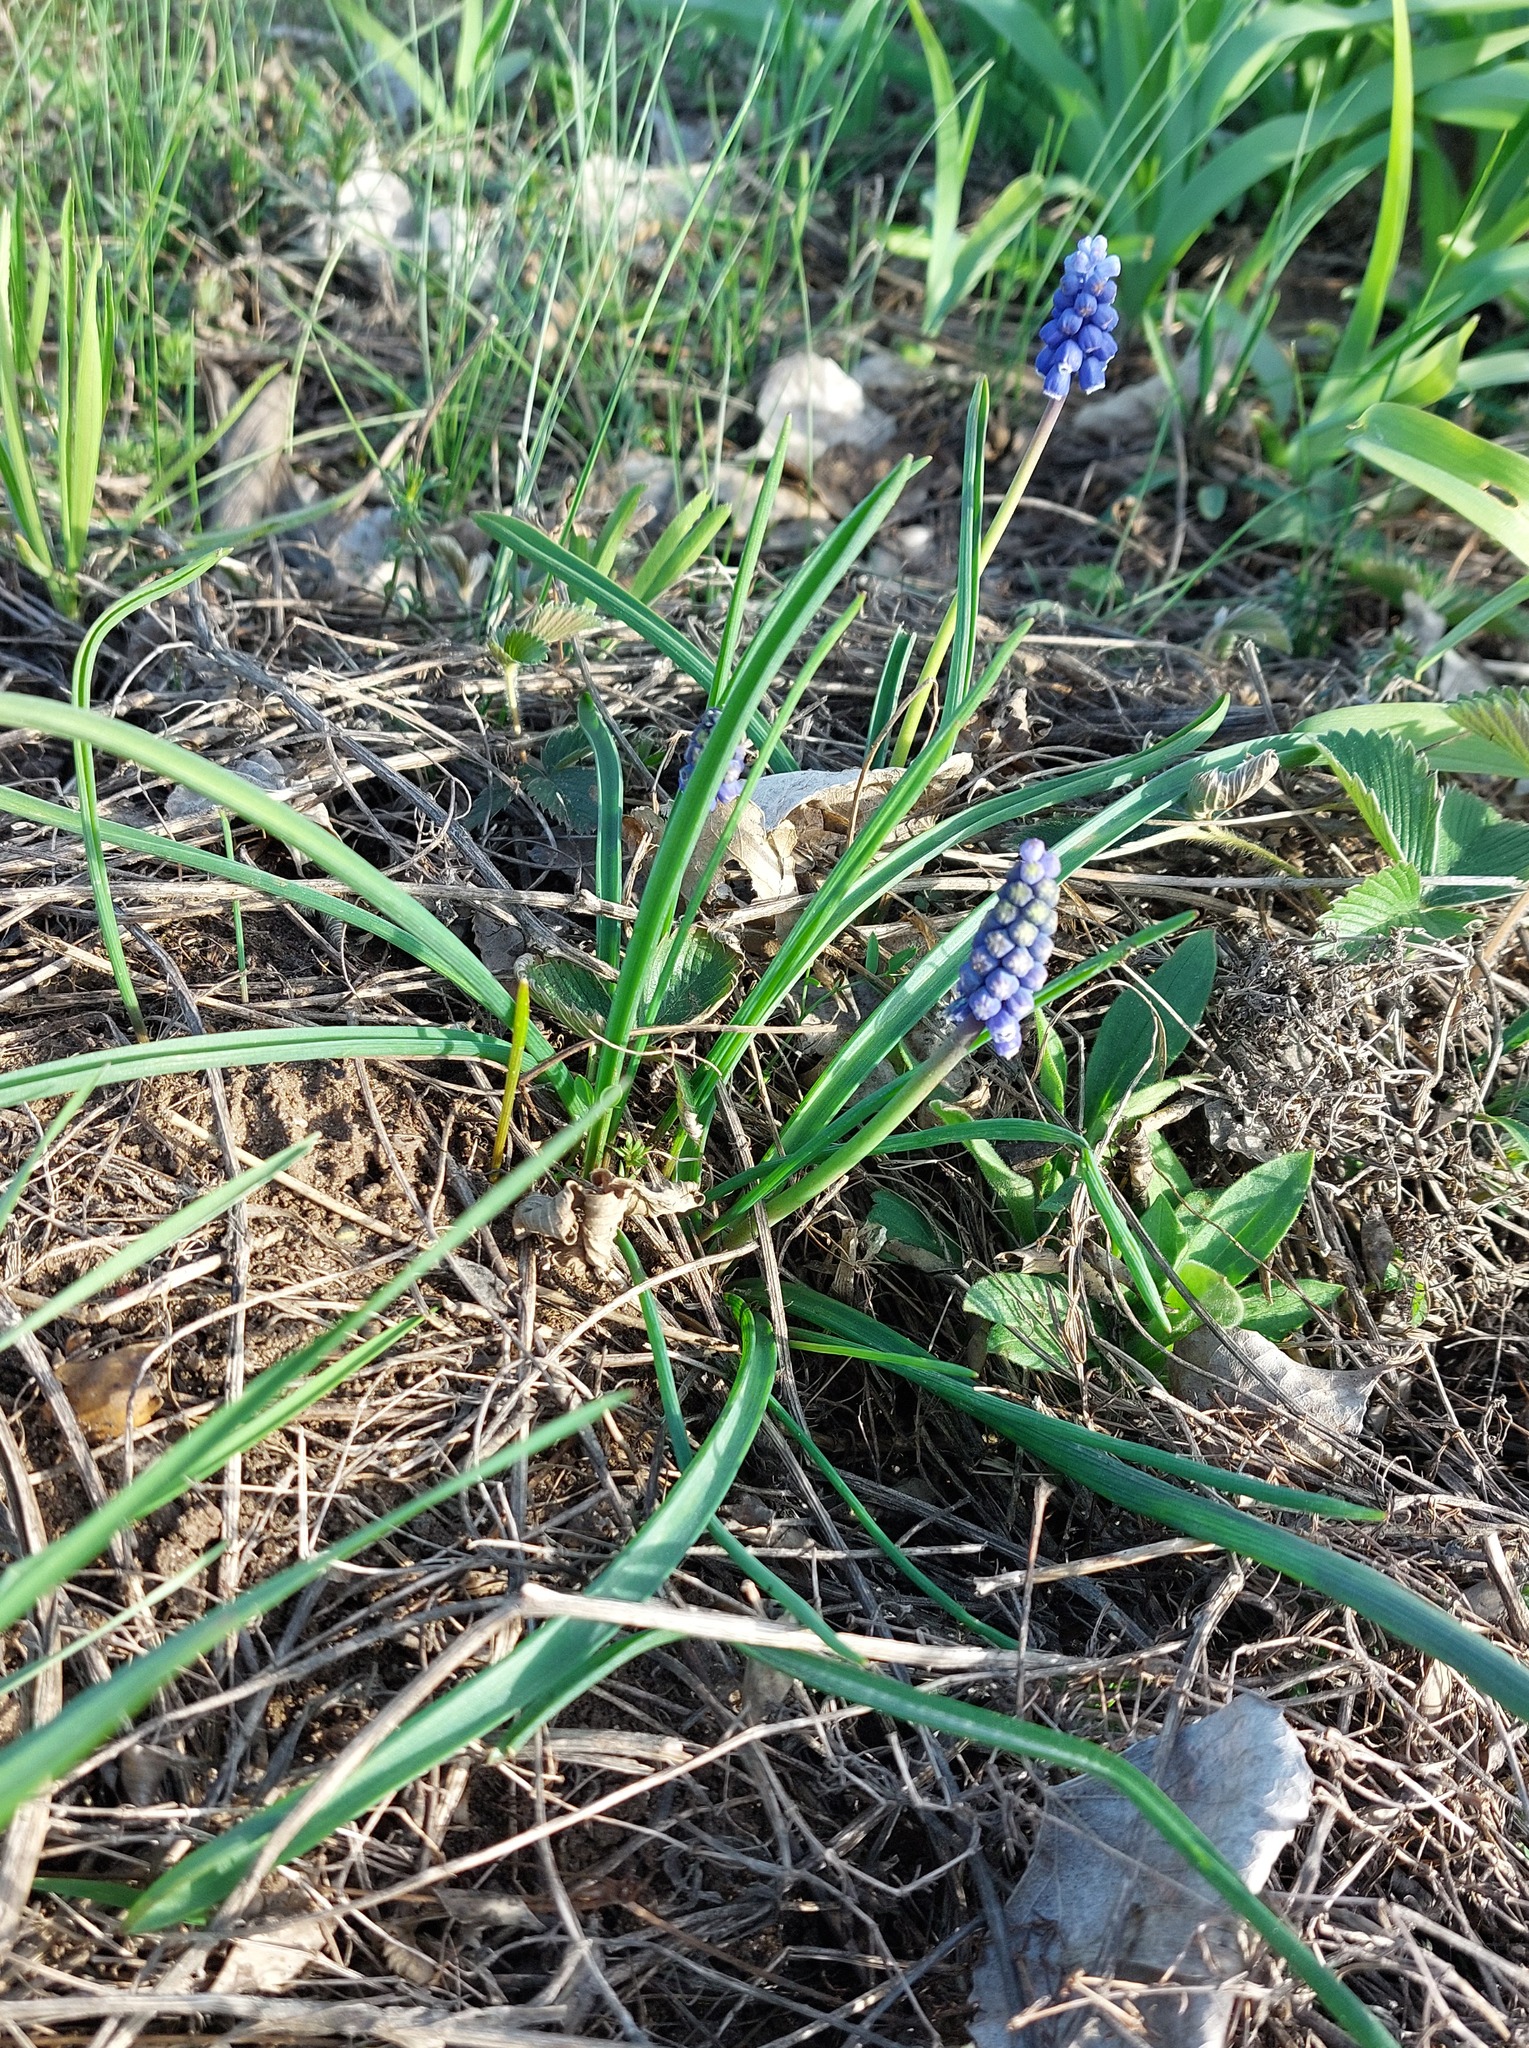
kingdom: Plantae
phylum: Tracheophyta
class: Liliopsida
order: Asparagales
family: Asparagaceae
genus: Muscari
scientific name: Muscari botryoides
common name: Compact grape-hyacinth
